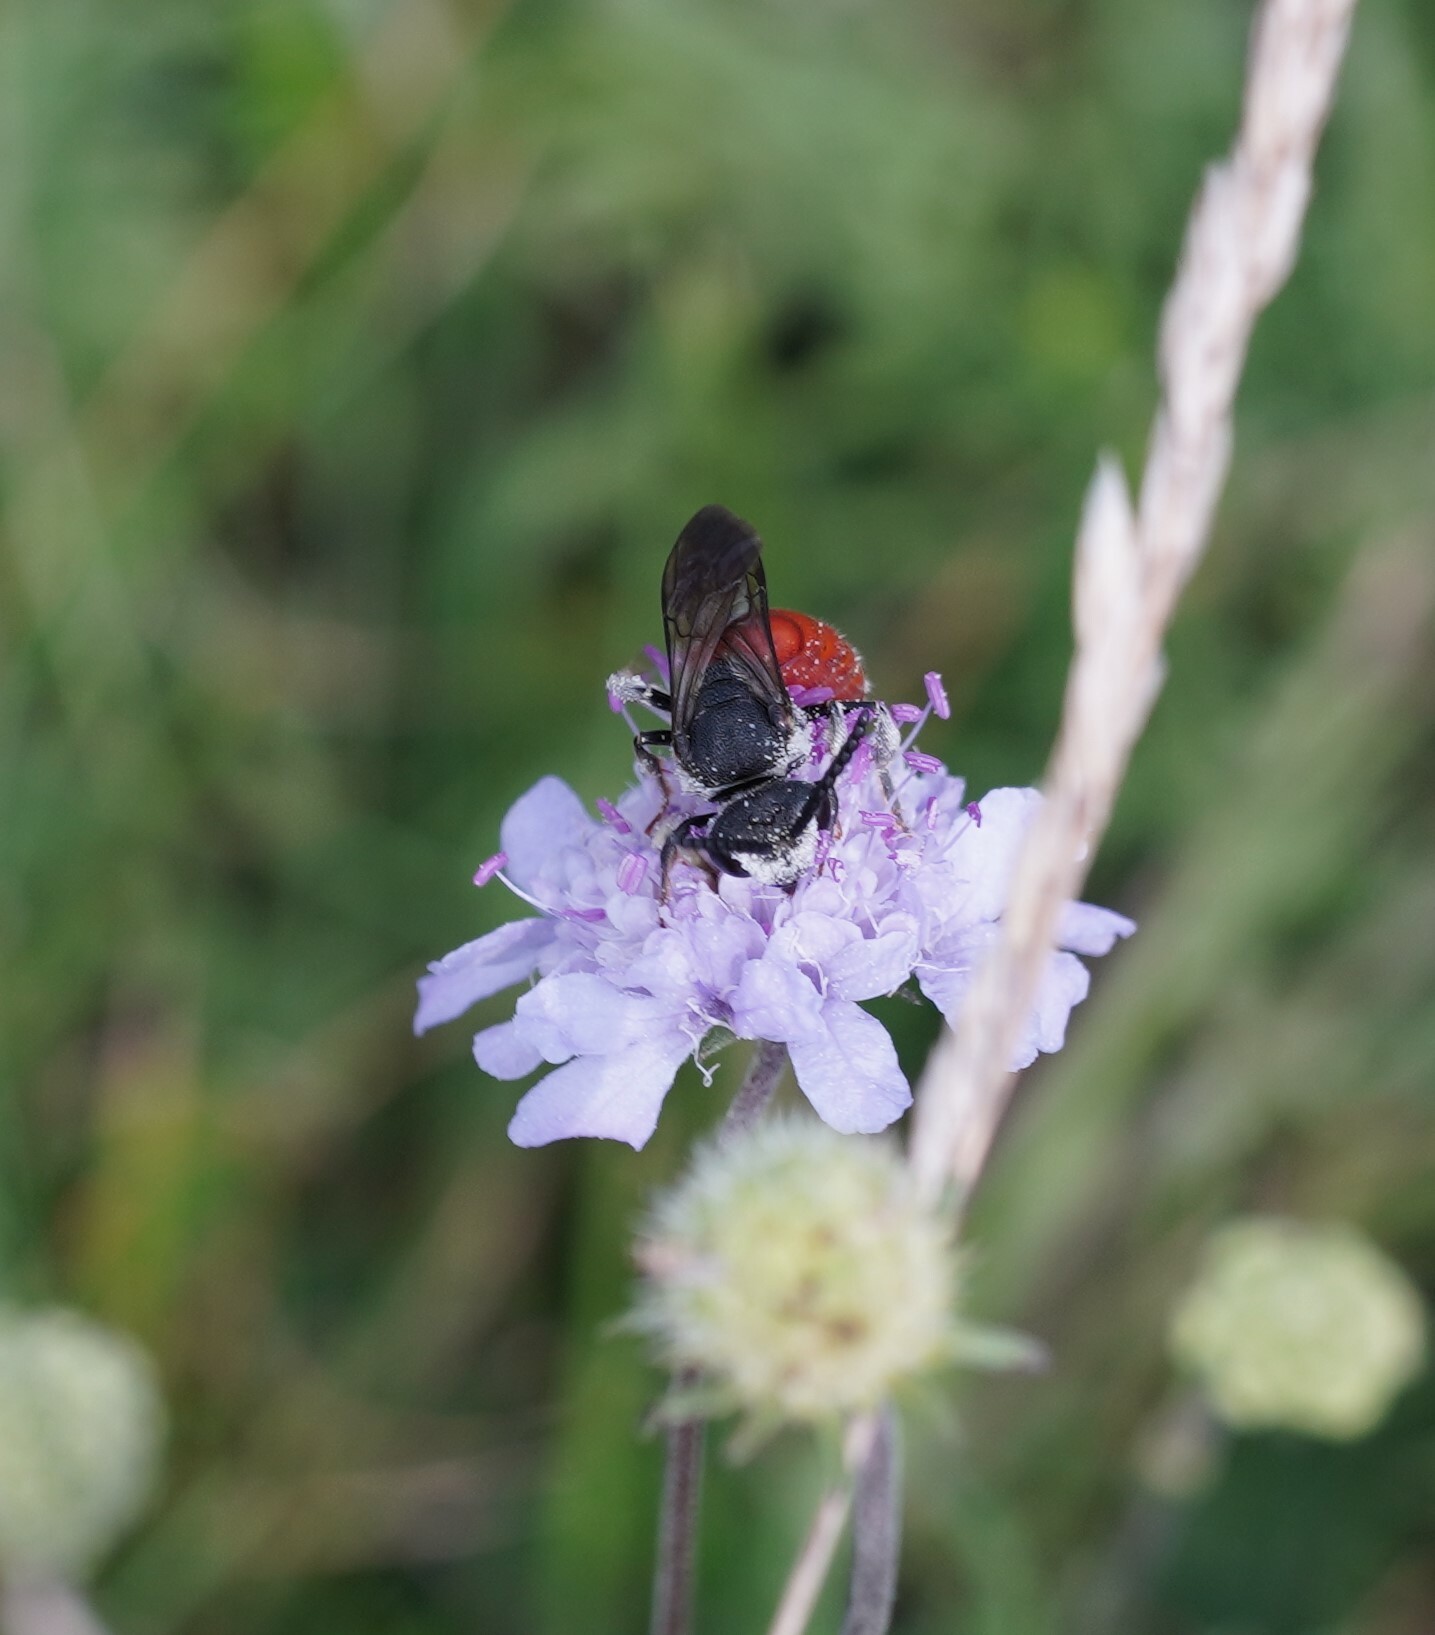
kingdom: Animalia
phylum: Arthropoda
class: Insecta
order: Hymenoptera
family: Halictidae
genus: Sphecodes
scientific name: Sphecodes albilabris
